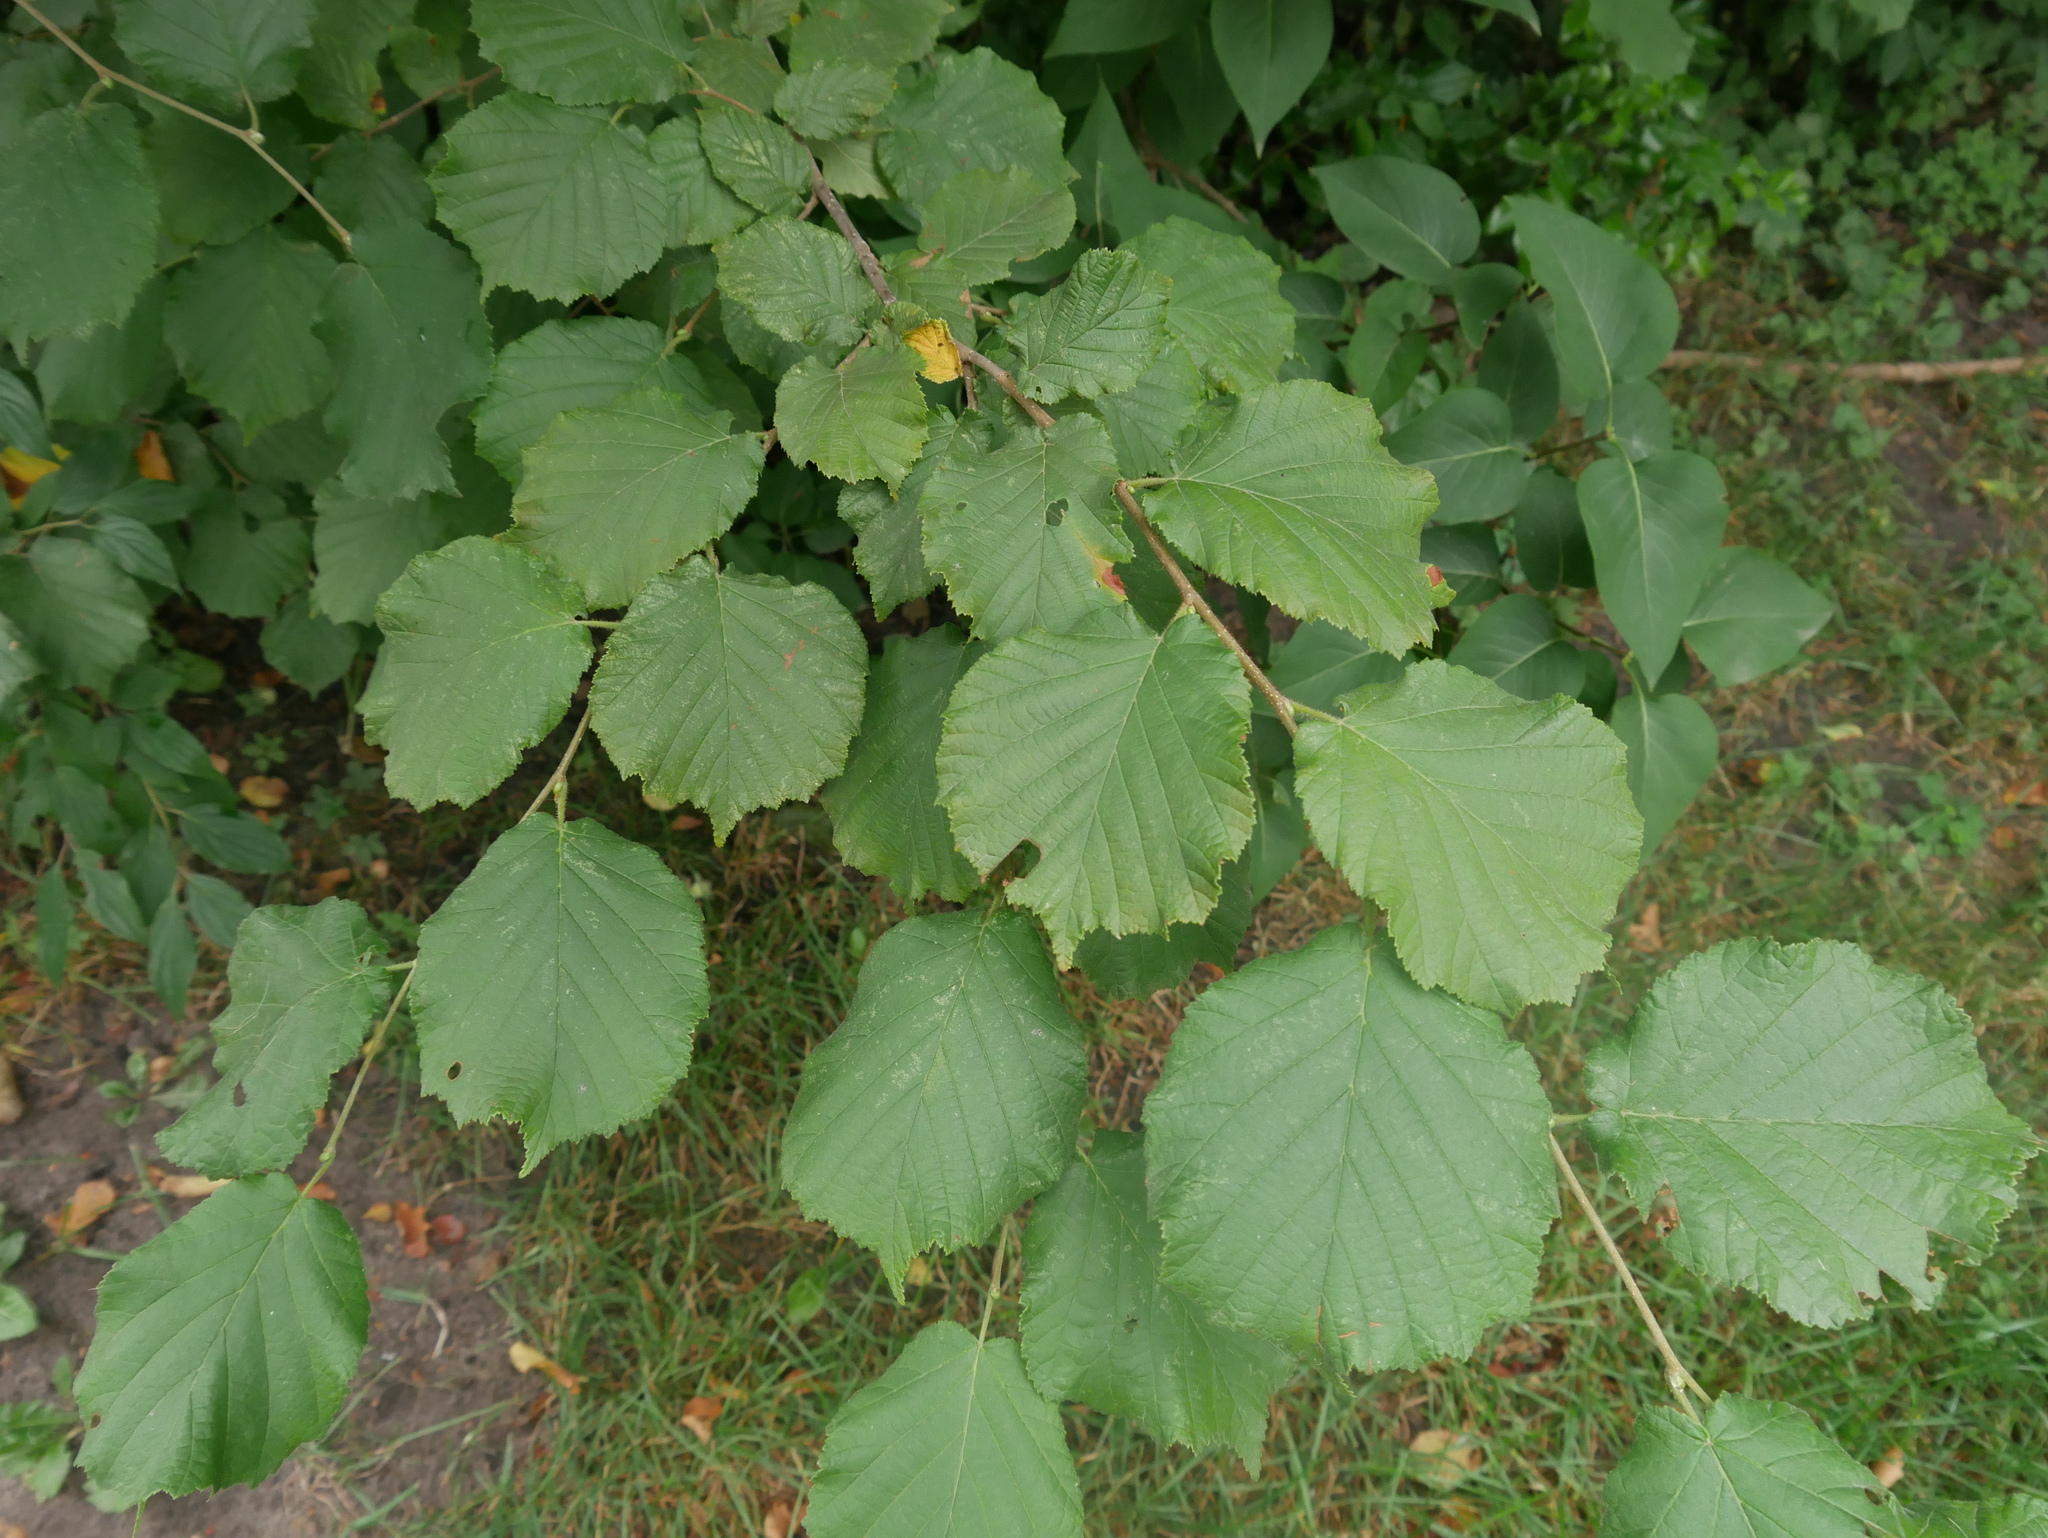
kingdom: Plantae
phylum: Tracheophyta
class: Magnoliopsida
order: Fagales
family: Betulaceae
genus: Corylus
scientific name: Corylus avellana
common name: European hazel
